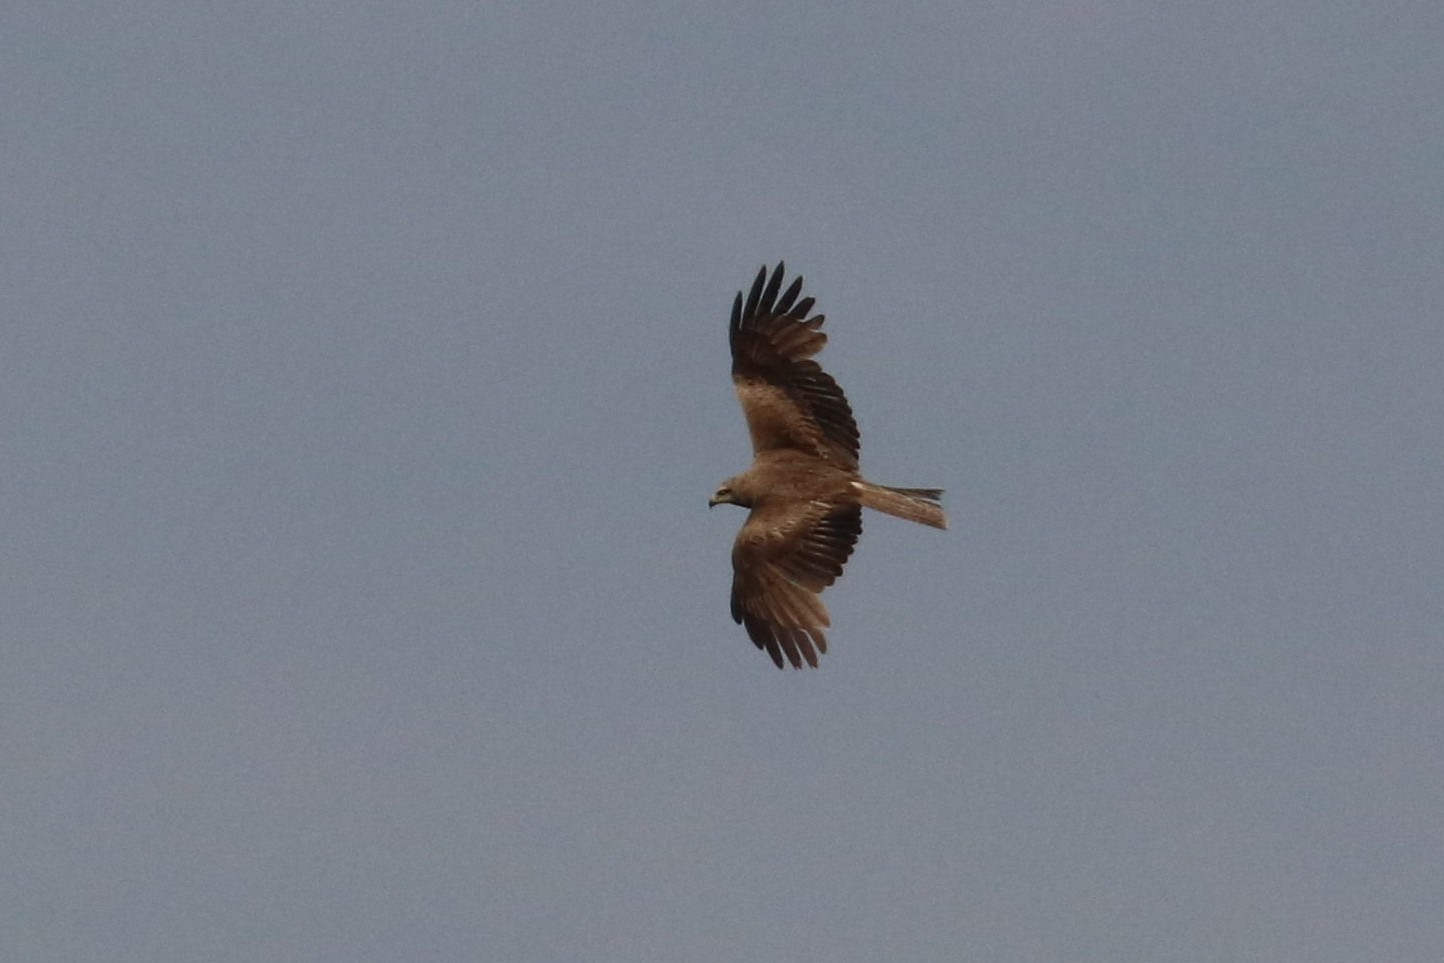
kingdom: Animalia
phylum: Chordata
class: Aves
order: Accipitriformes
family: Accipitridae
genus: Milvus
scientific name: Milvus migrans
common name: Black kite
